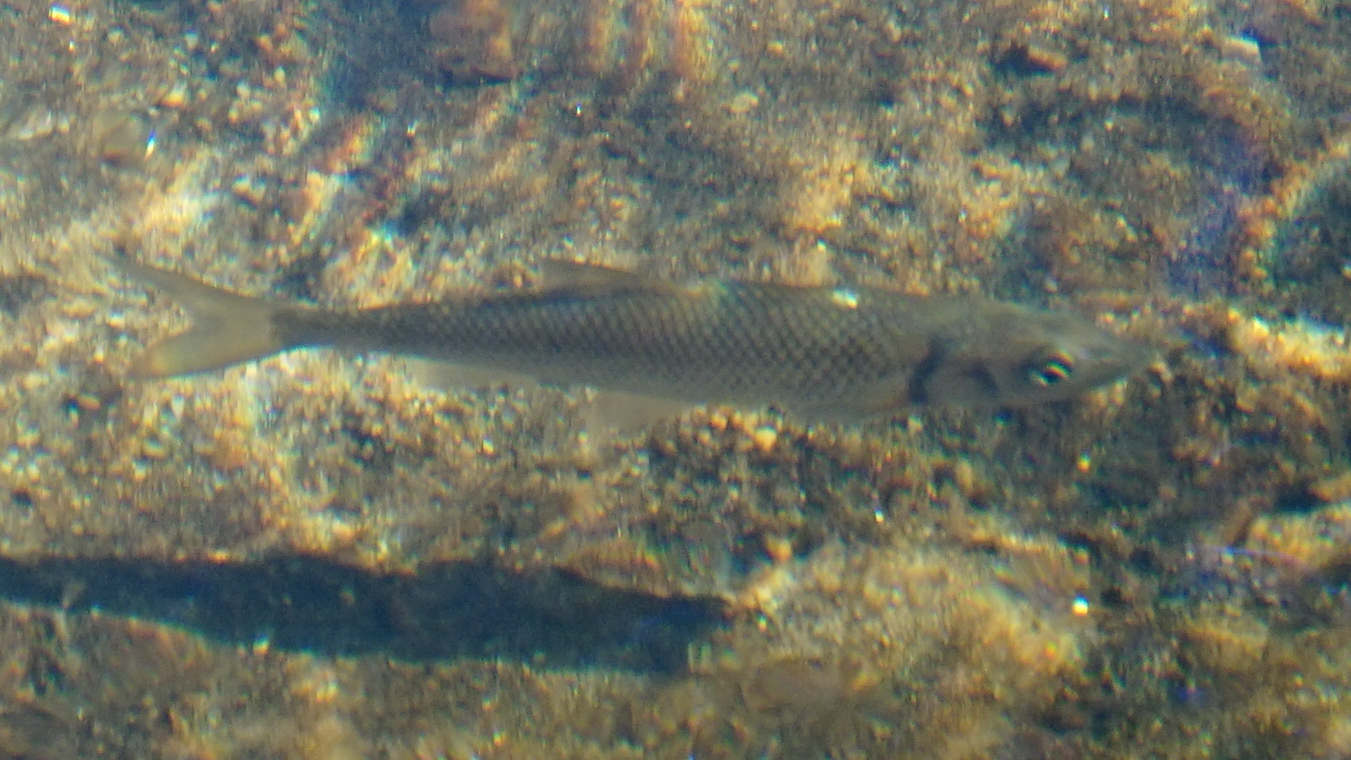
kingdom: Animalia
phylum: Chordata
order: Cypriniformes
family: Cyprinidae
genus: Semotilus
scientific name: Semotilus corporalis
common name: Fallfish
